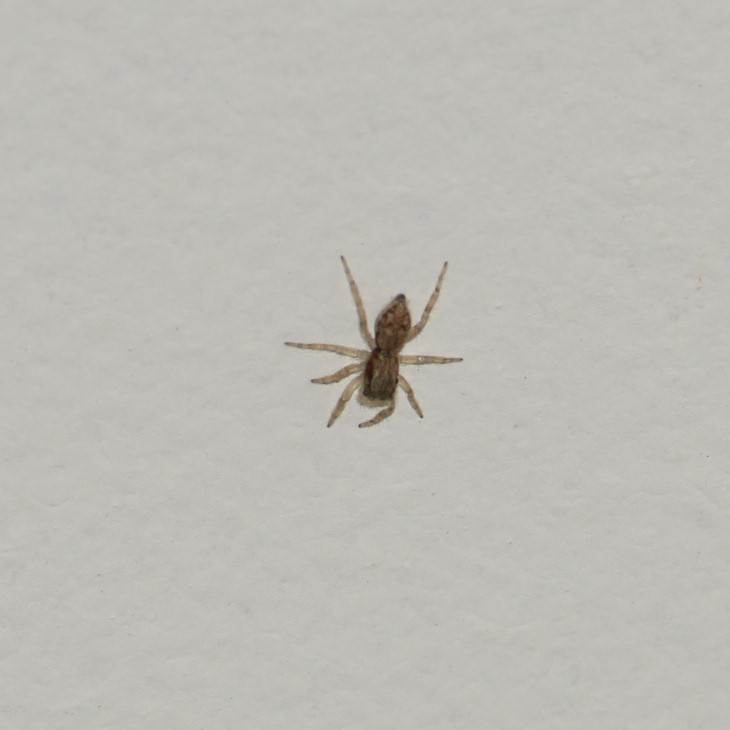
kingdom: Animalia
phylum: Arthropoda
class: Arachnida
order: Araneae
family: Salticidae
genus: Menemerus
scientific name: Menemerus bivittatus
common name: Gray wall jumper
